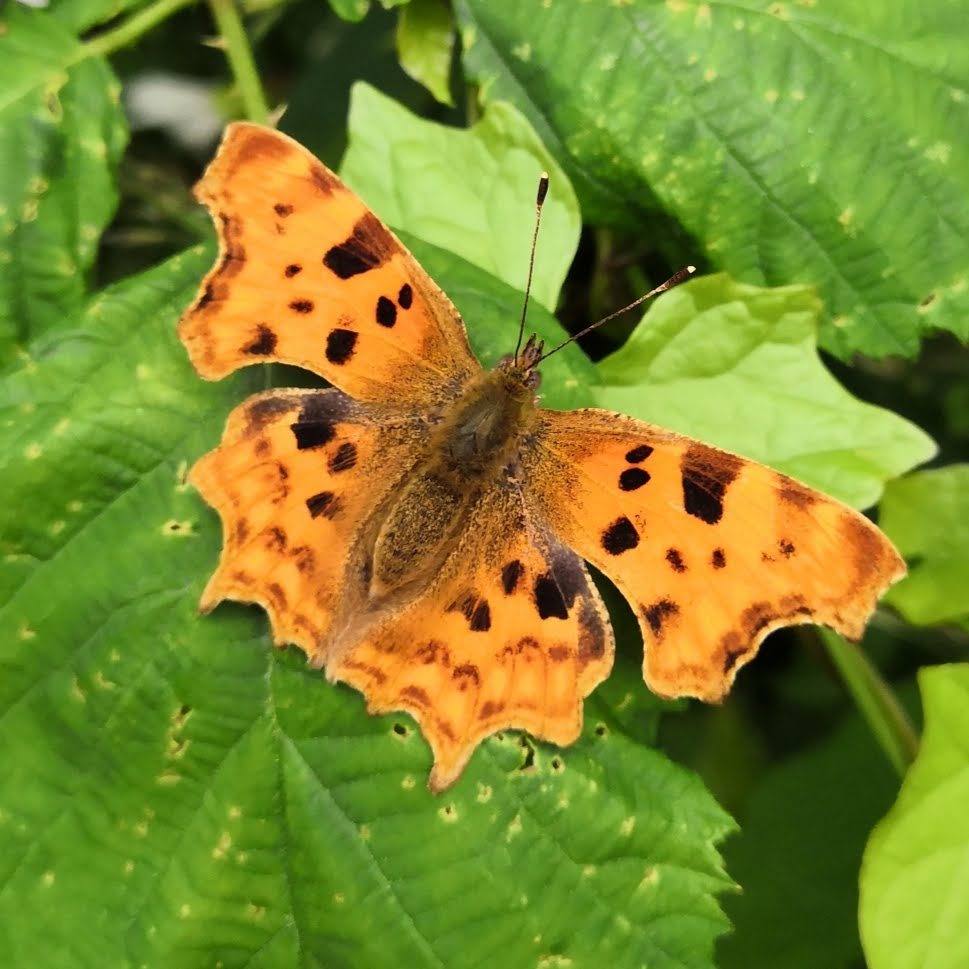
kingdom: Animalia
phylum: Arthropoda
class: Insecta
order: Lepidoptera
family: Nymphalidae
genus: Polygonia
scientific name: Polygonia c-album
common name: Comma
